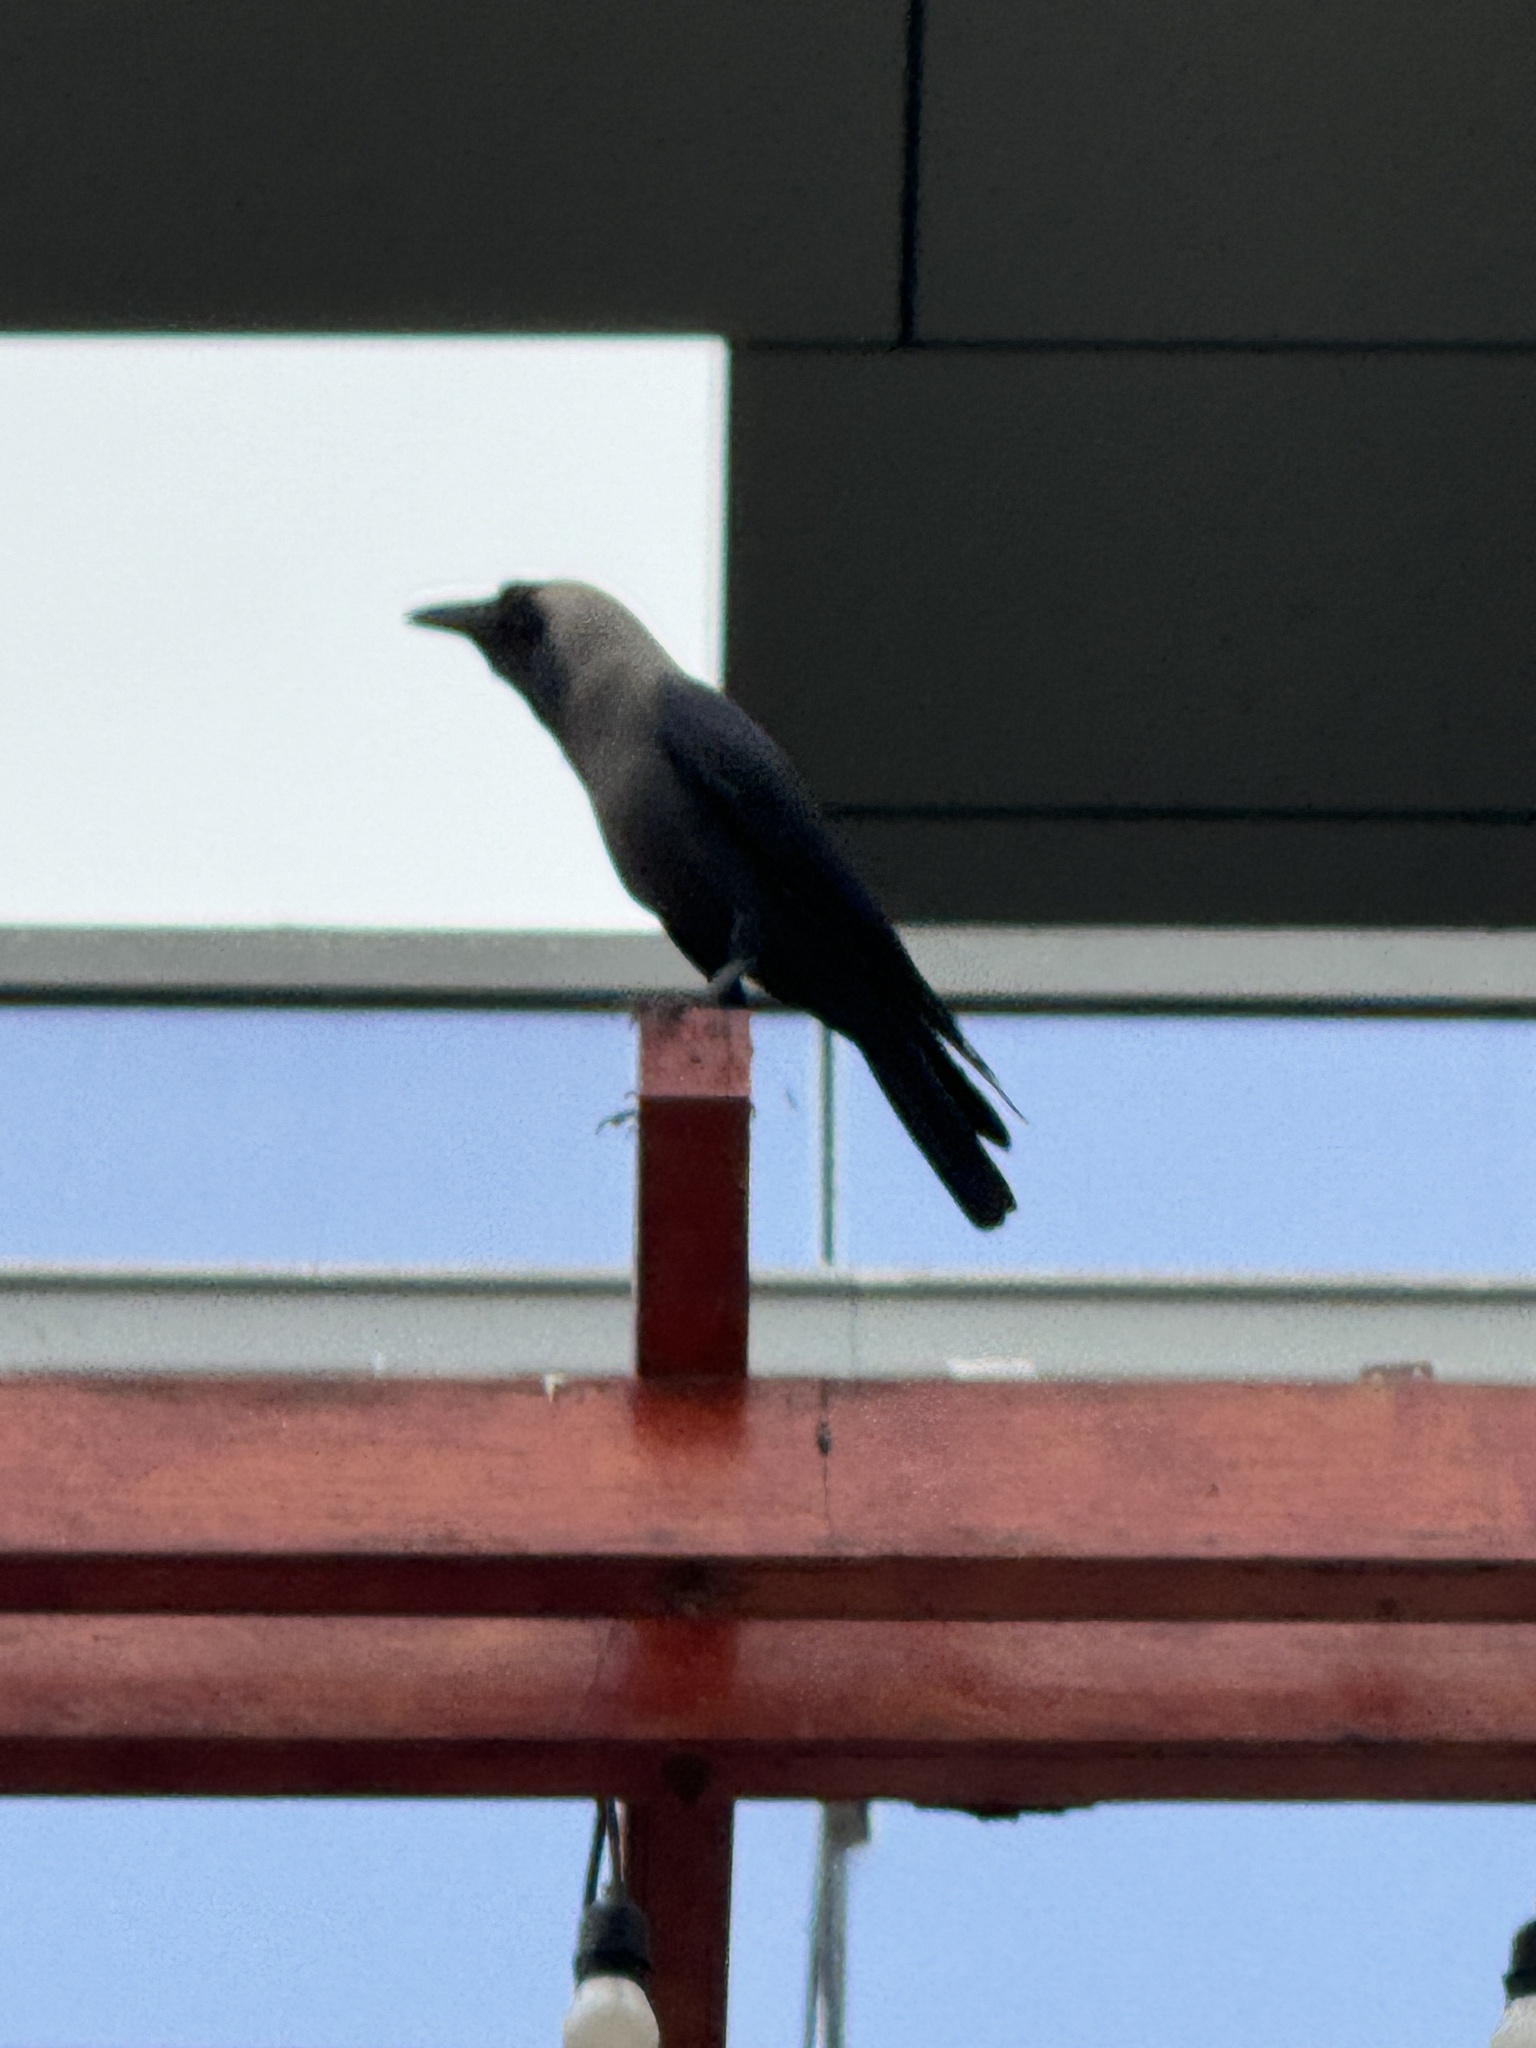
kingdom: Animalia
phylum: Chordata
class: Aves
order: Passeriformes
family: Corvidae
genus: Corvus
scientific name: Corvus splendens
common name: House crow
